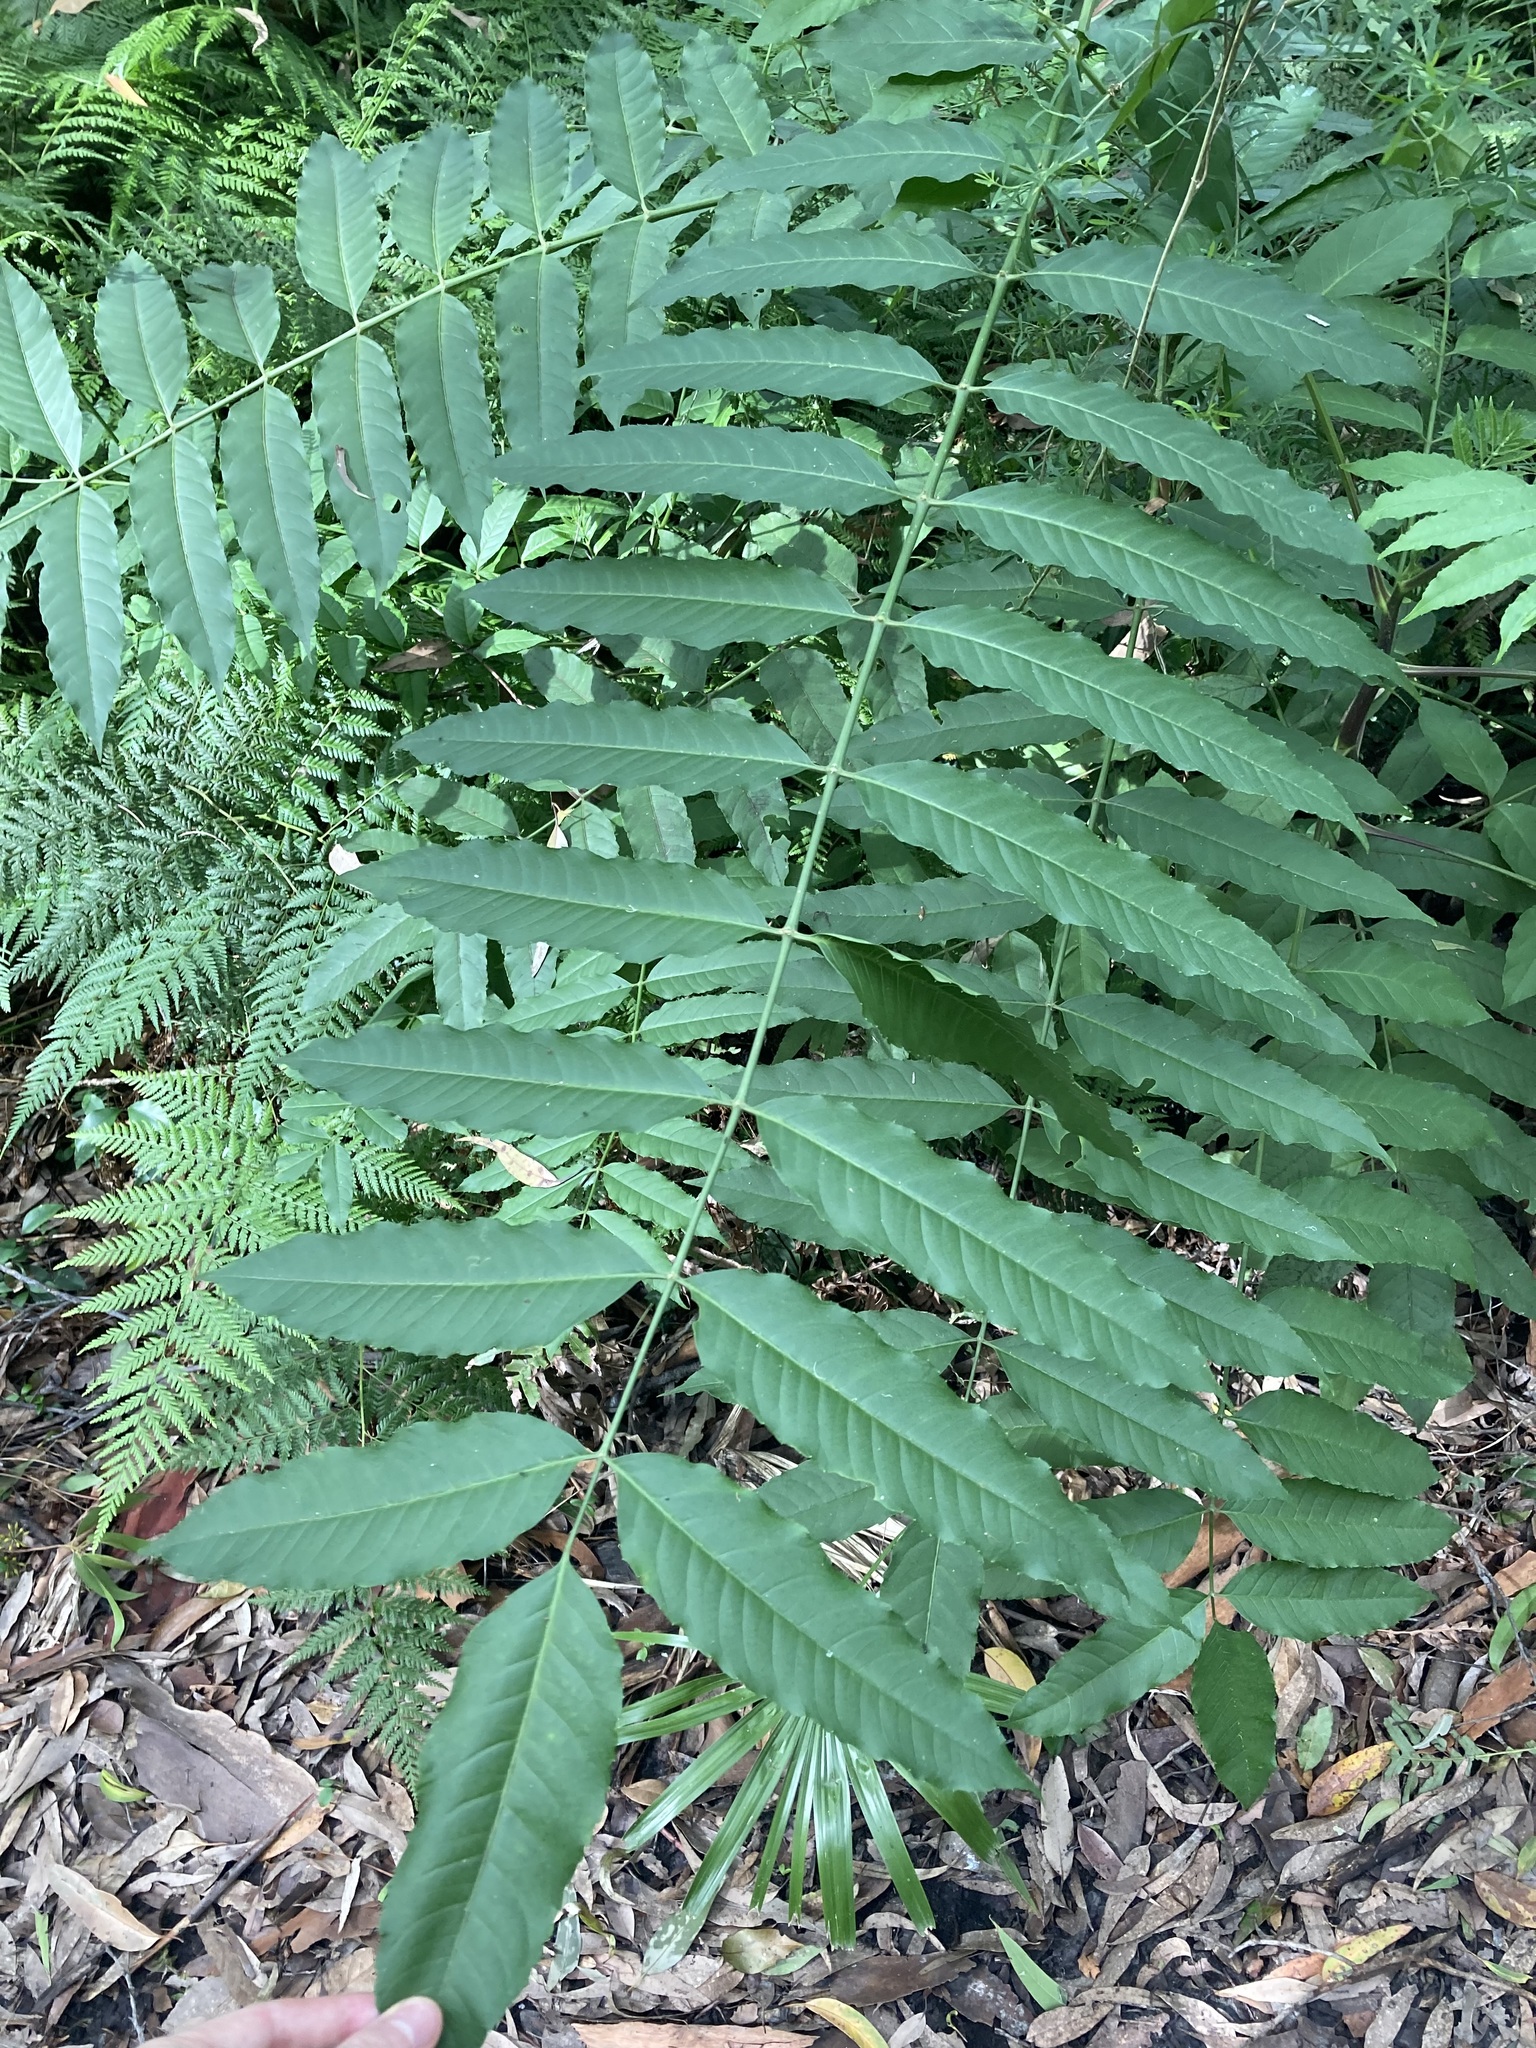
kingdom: Plantae
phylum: Tracheophyta
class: Magnoliopsida
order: Apiales
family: Araliaceae
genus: Polyscias
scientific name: Polyscias murrayi
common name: Pencil cedar
